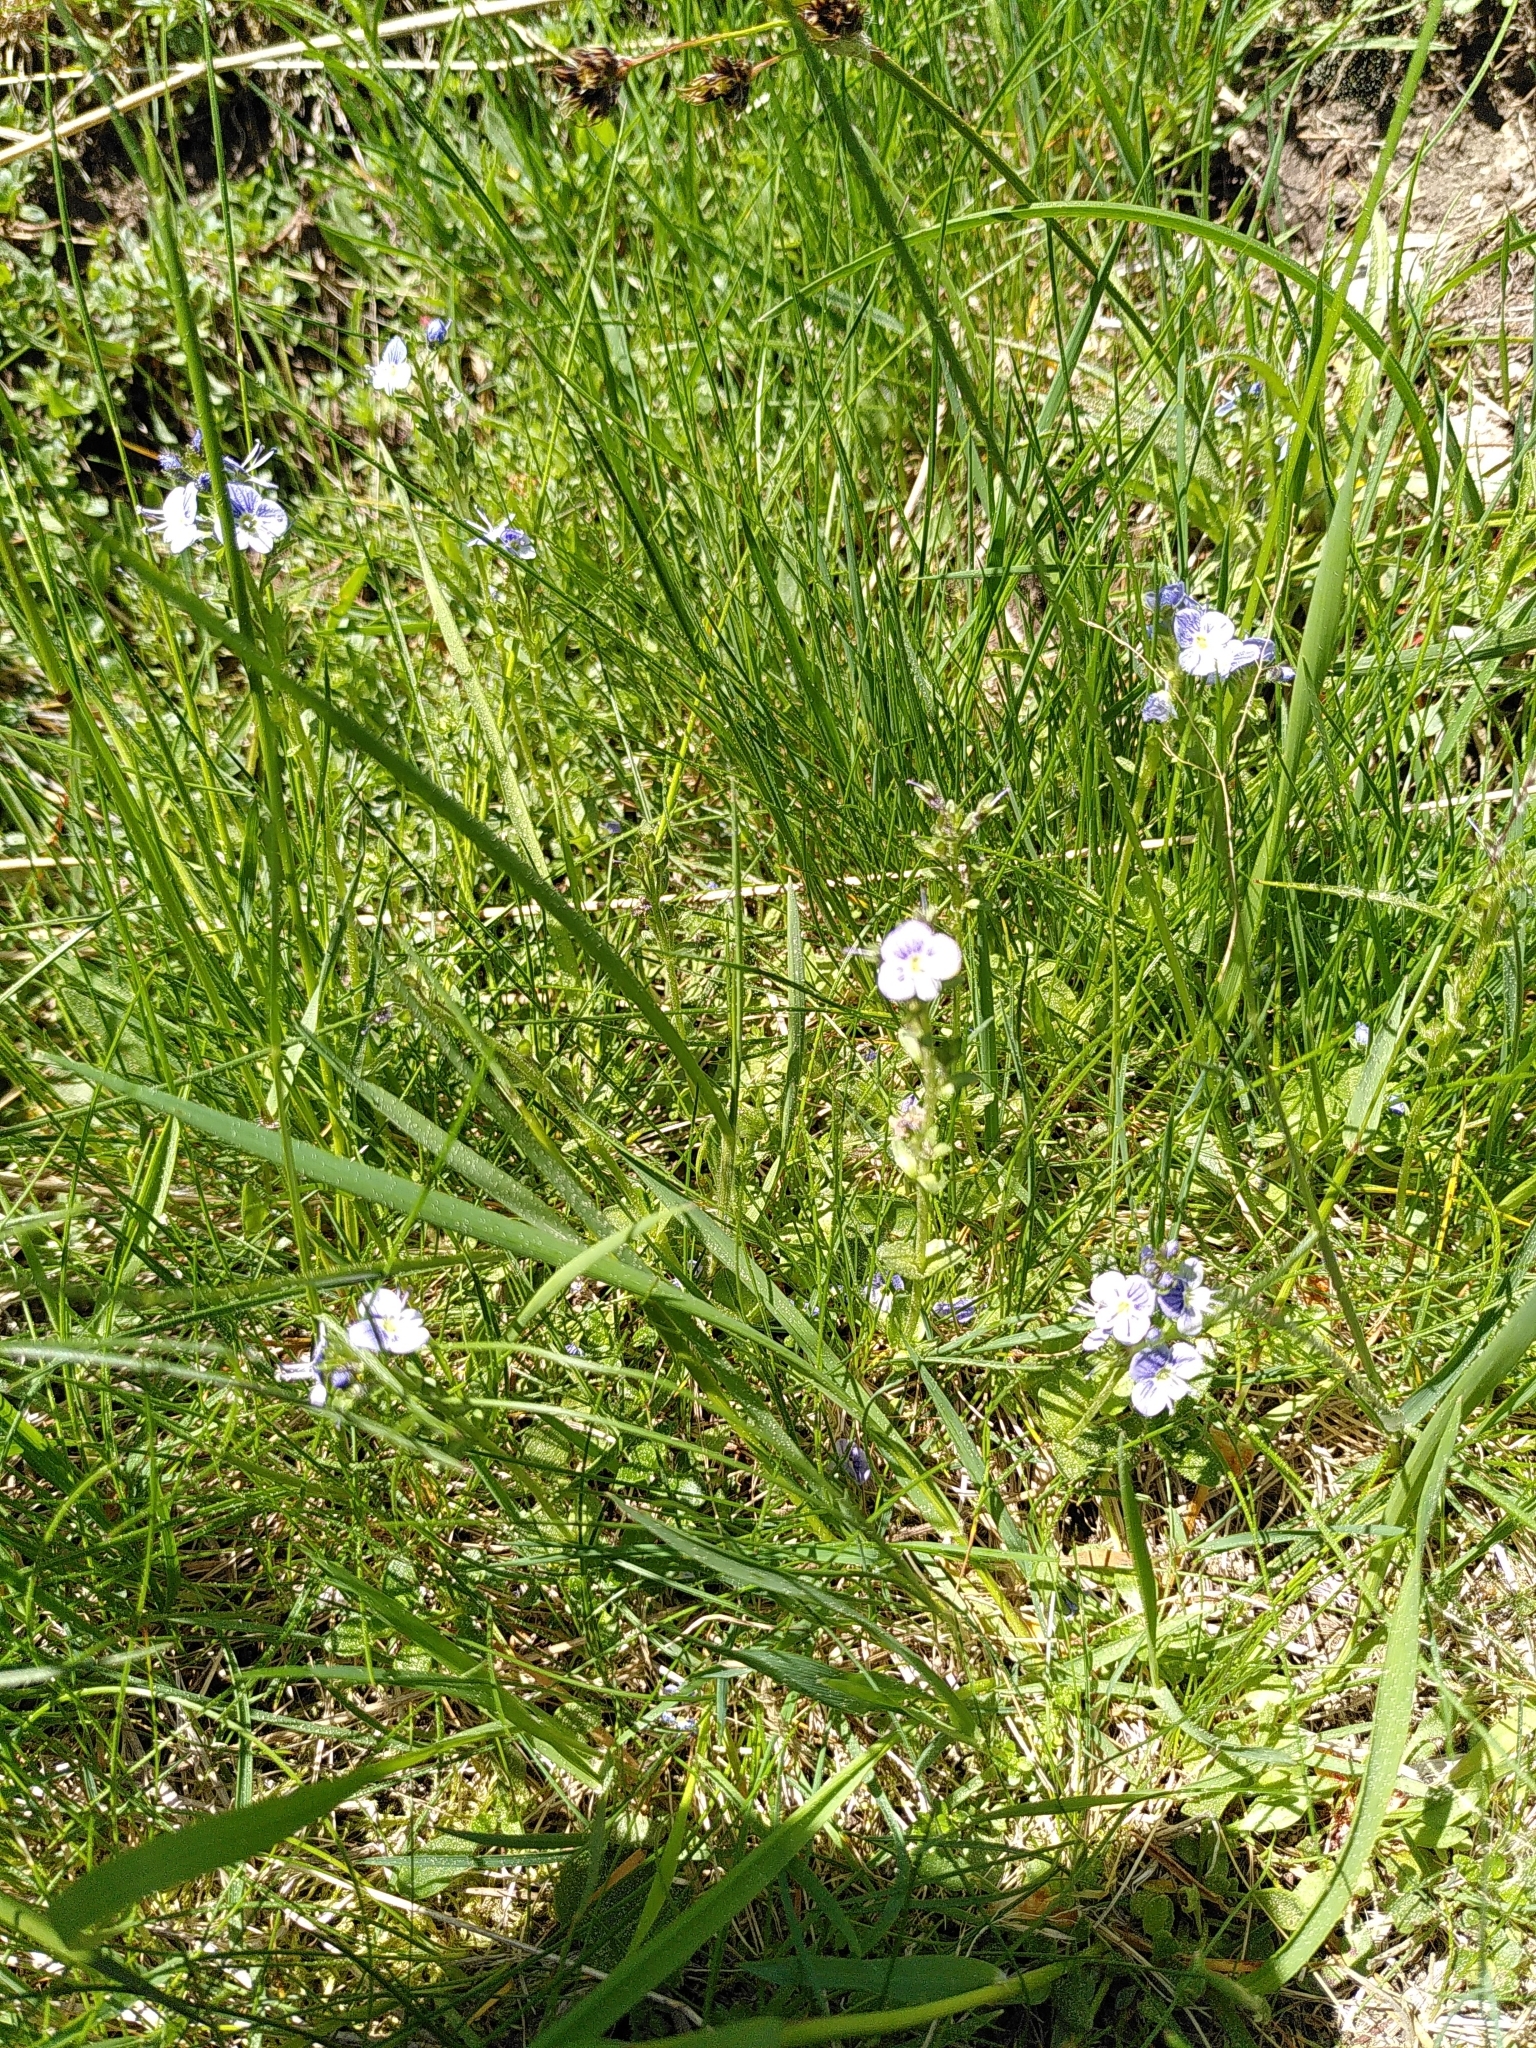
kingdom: Plantae
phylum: Tracheophyta
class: Magnoliopsida
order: Lamiales
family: Plantaginaceae
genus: Veronica
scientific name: Veronica serpyllifolia
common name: Thyme-leaved speedwell
